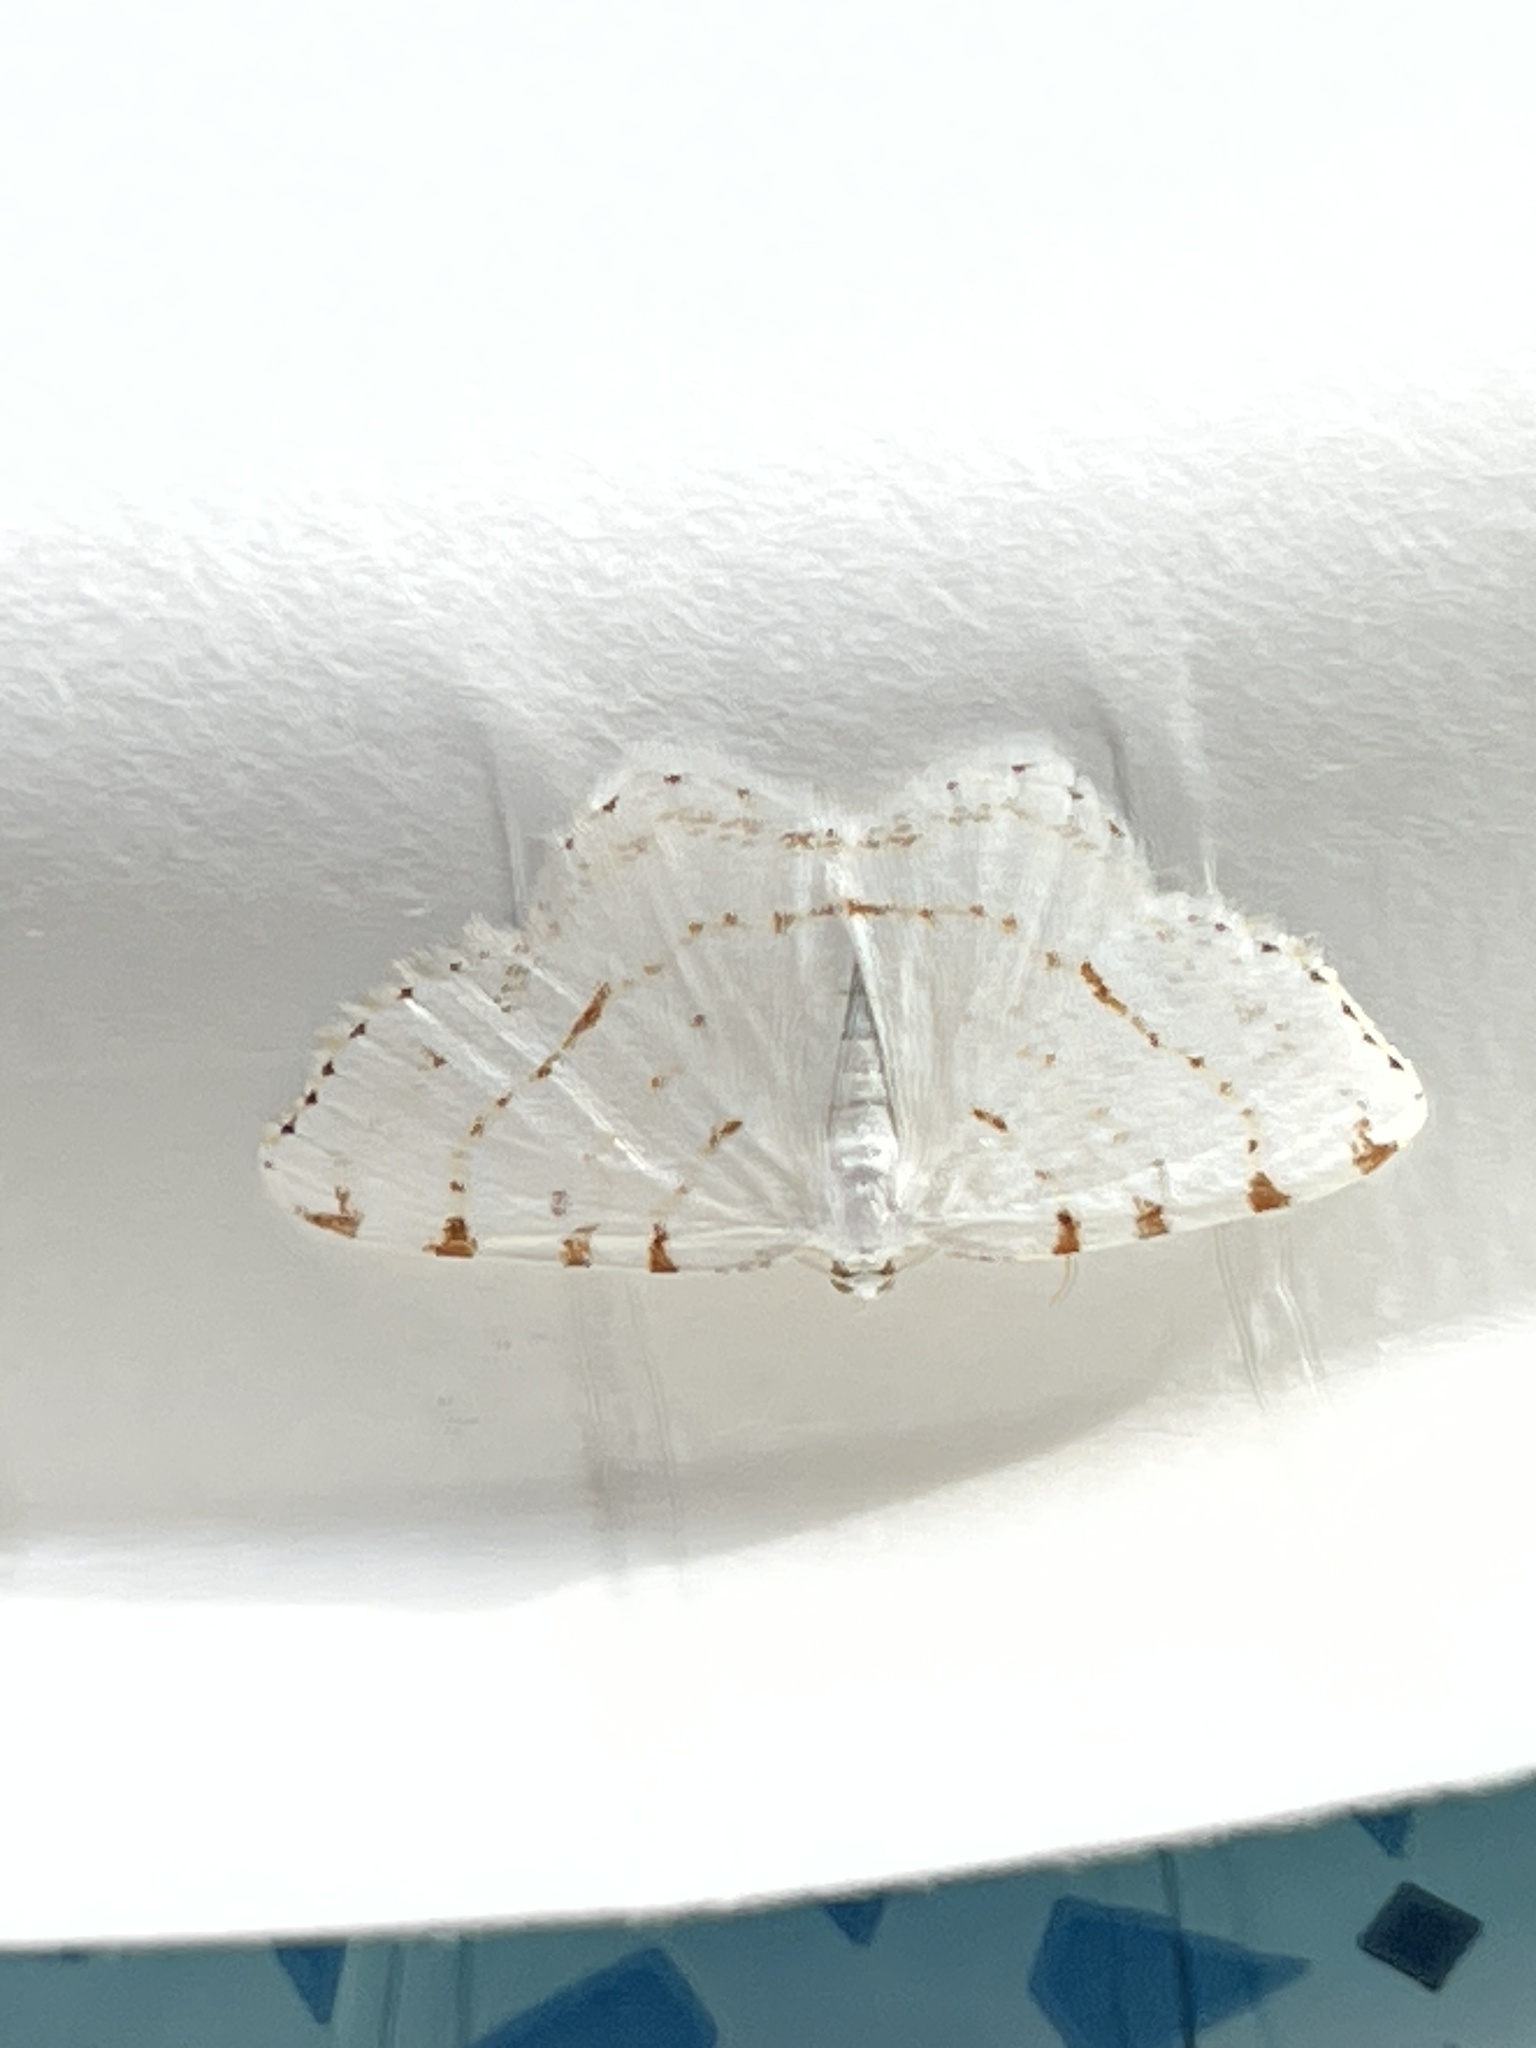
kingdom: Animalia
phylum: Arthropoda
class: Insecta
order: Lepidoptera
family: Geometridae
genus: Macaria
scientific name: Macaria pustularia
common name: Lesser maple spanworm moth
